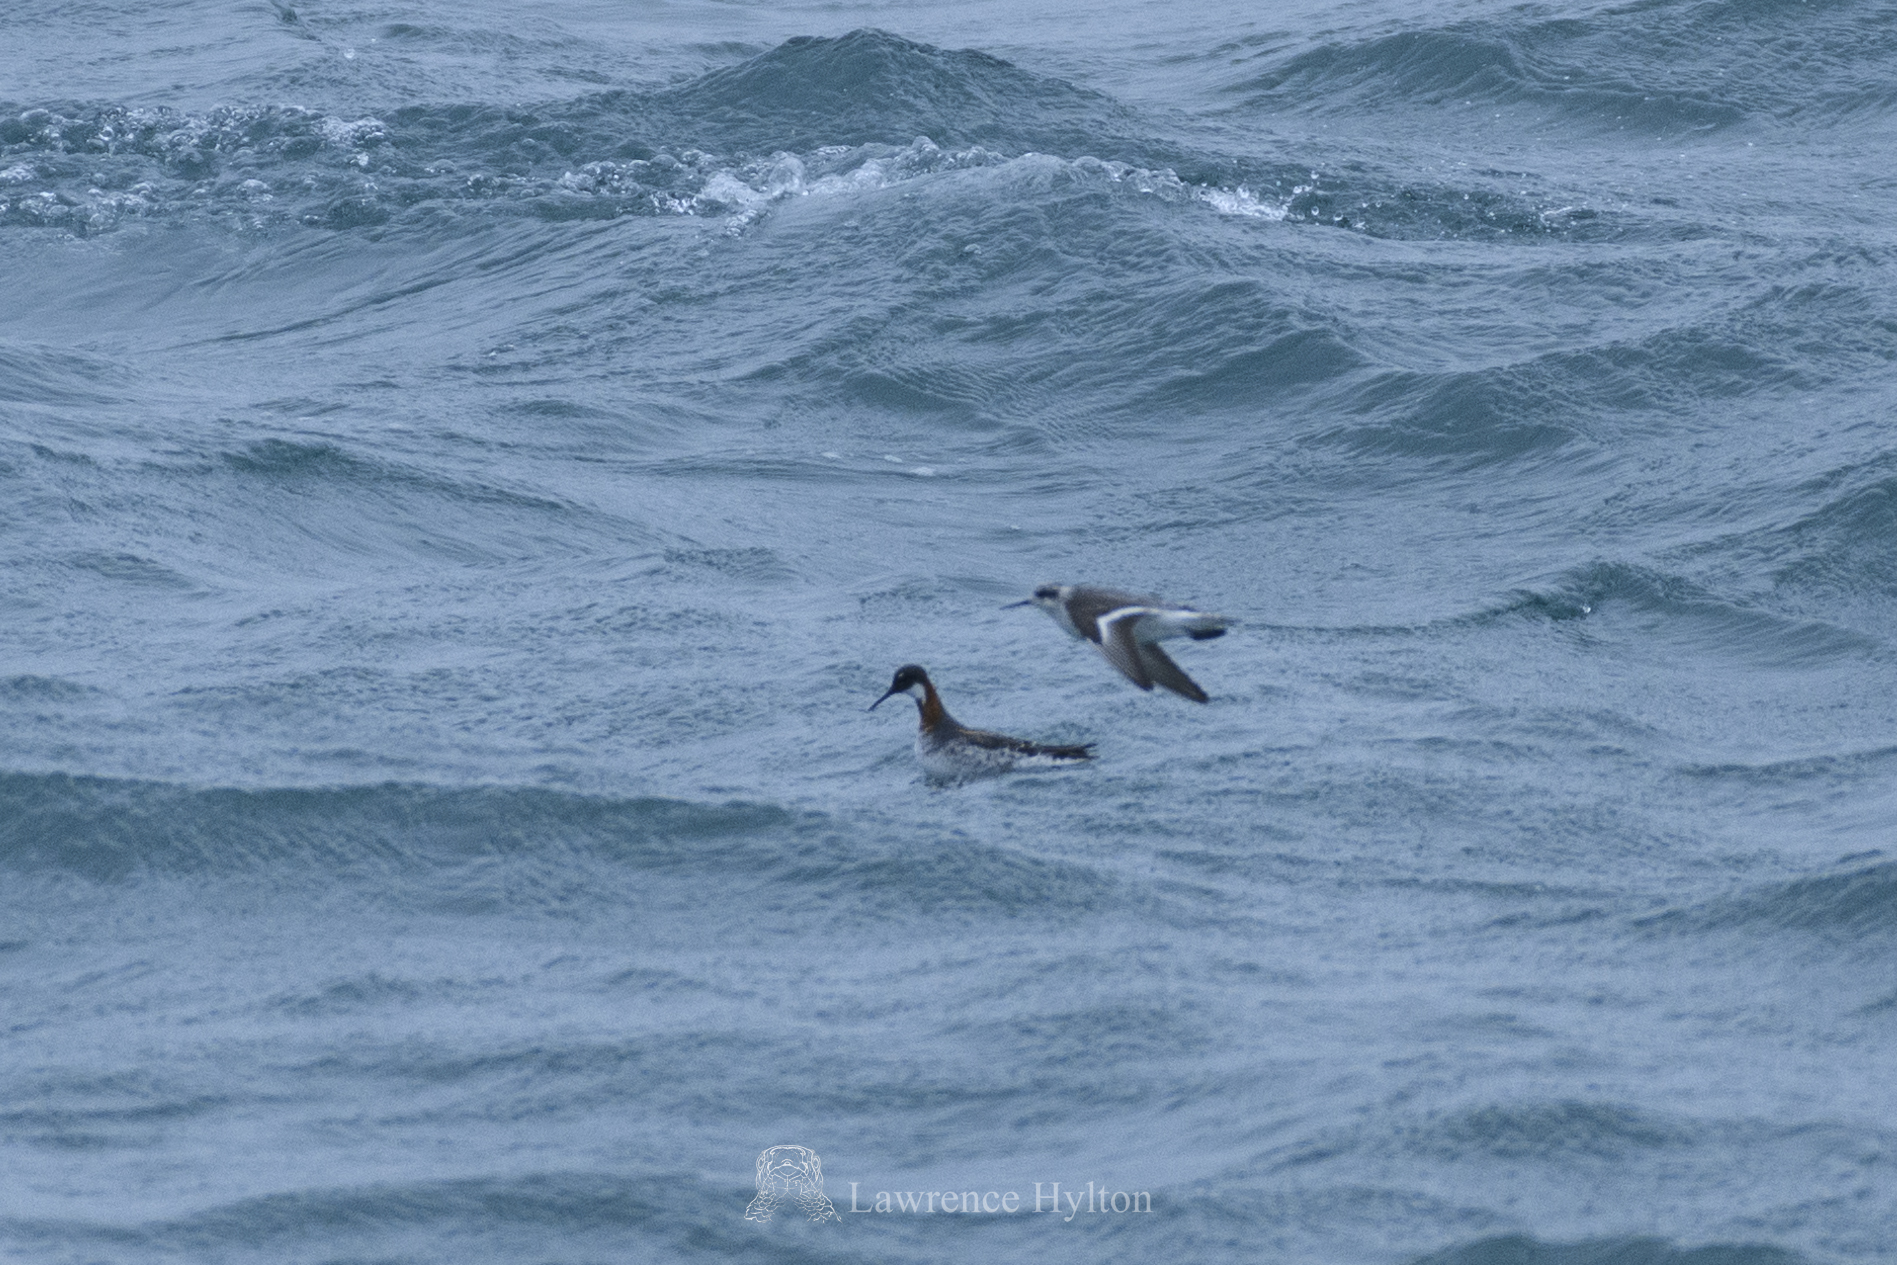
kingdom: Animalia
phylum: Chordata
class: Aves
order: Charadriiformes
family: Scolopacidae
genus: Phalaropus
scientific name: Phalaropus lobatus
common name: Red-necked phalarope
